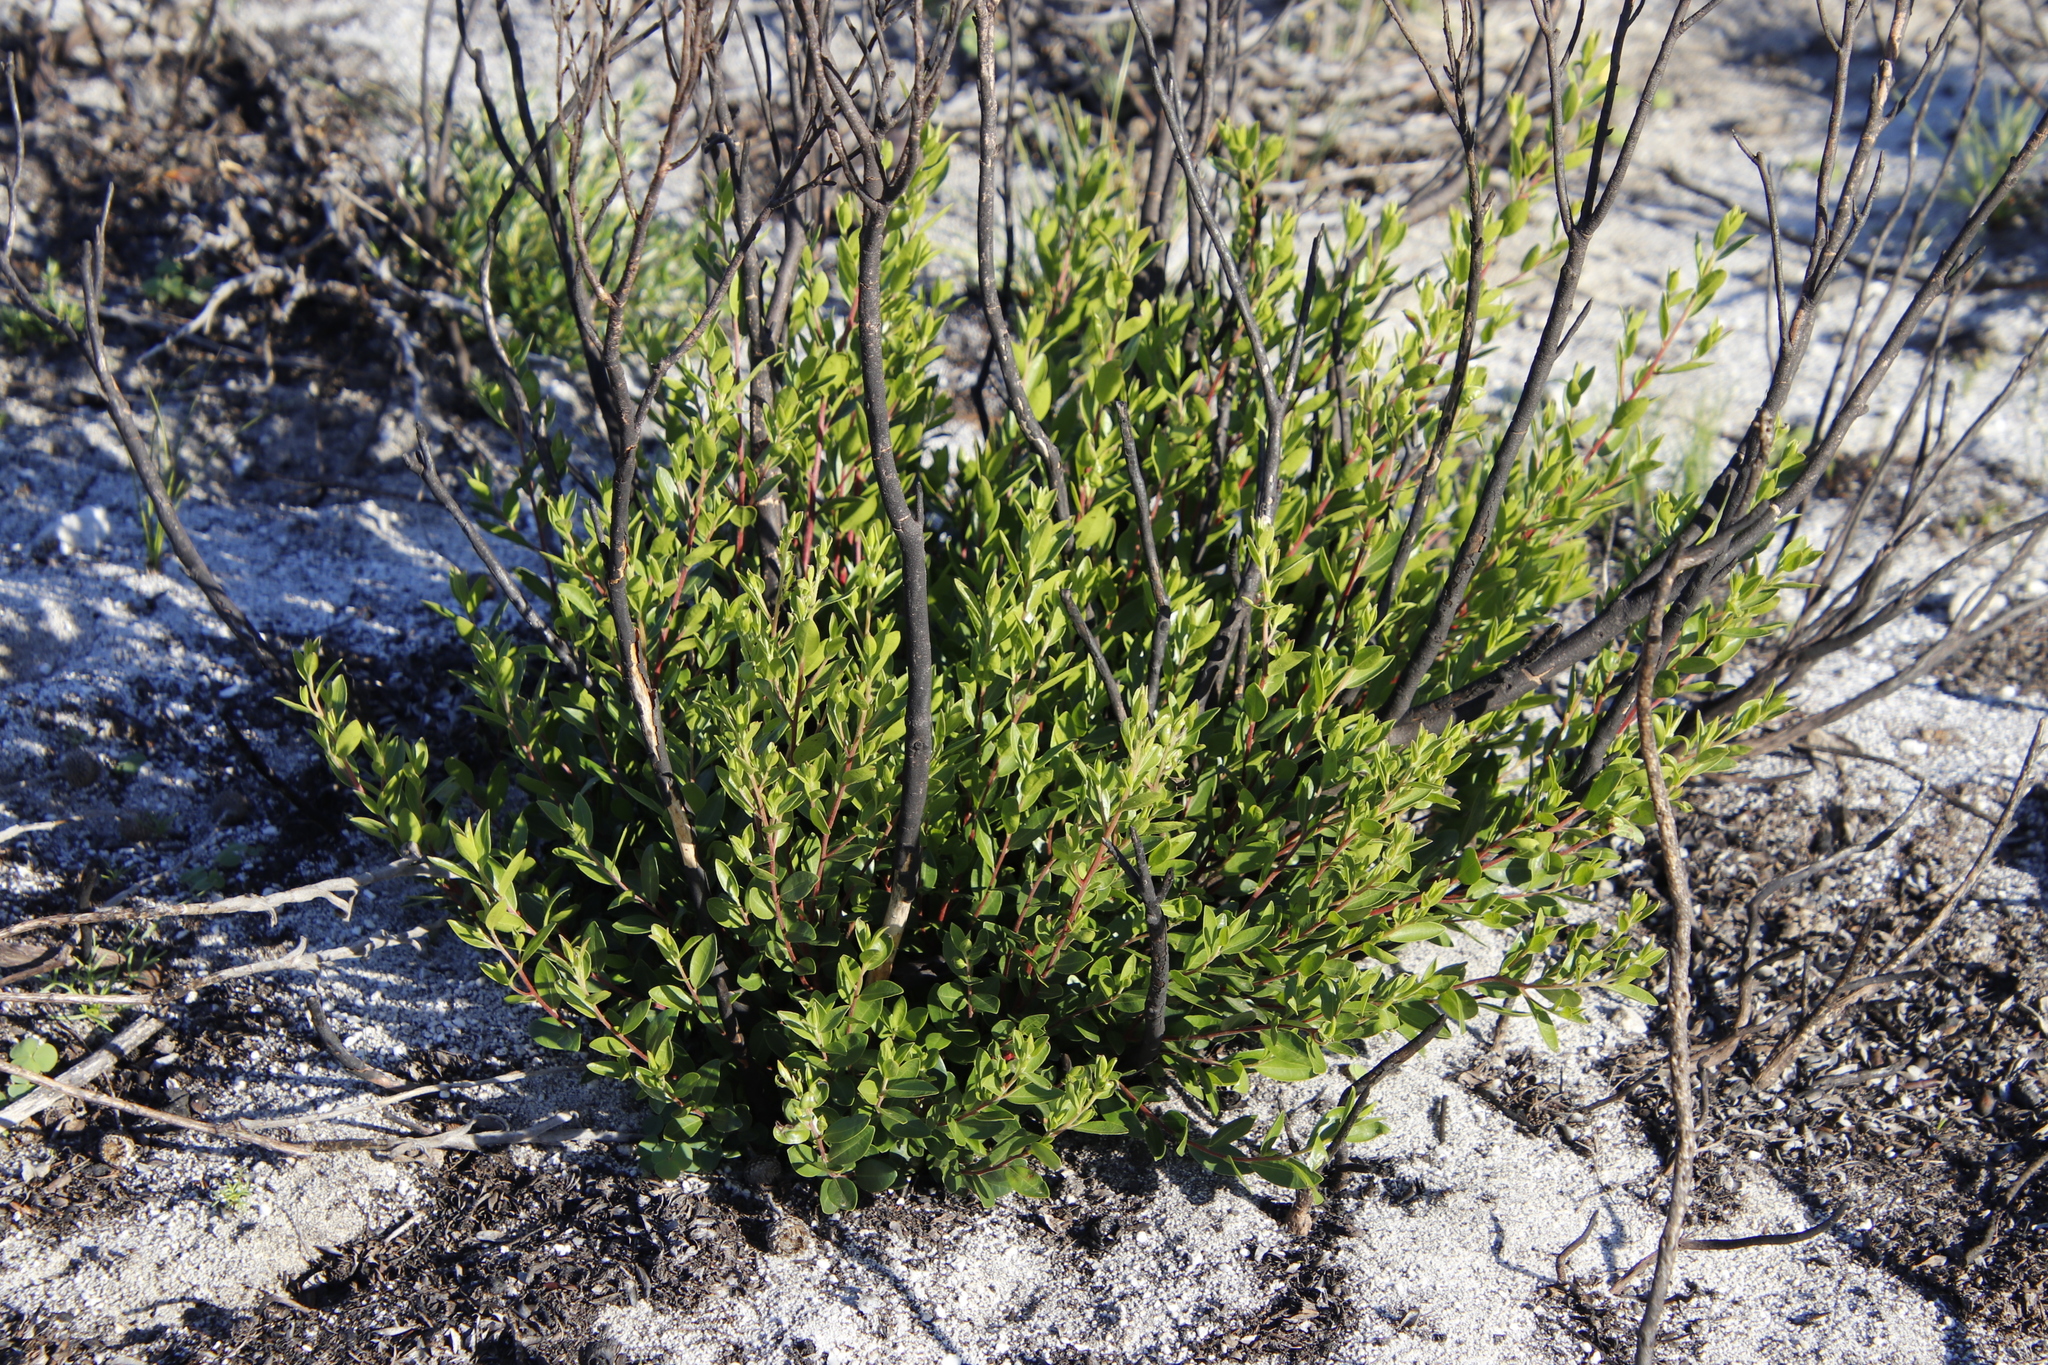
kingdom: Plantae
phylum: Tracheophyta
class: Magnoliopsida
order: Ericales
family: Ebenaceae
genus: Diospyros
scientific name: Diospyros glabra
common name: Fynbos star apple
